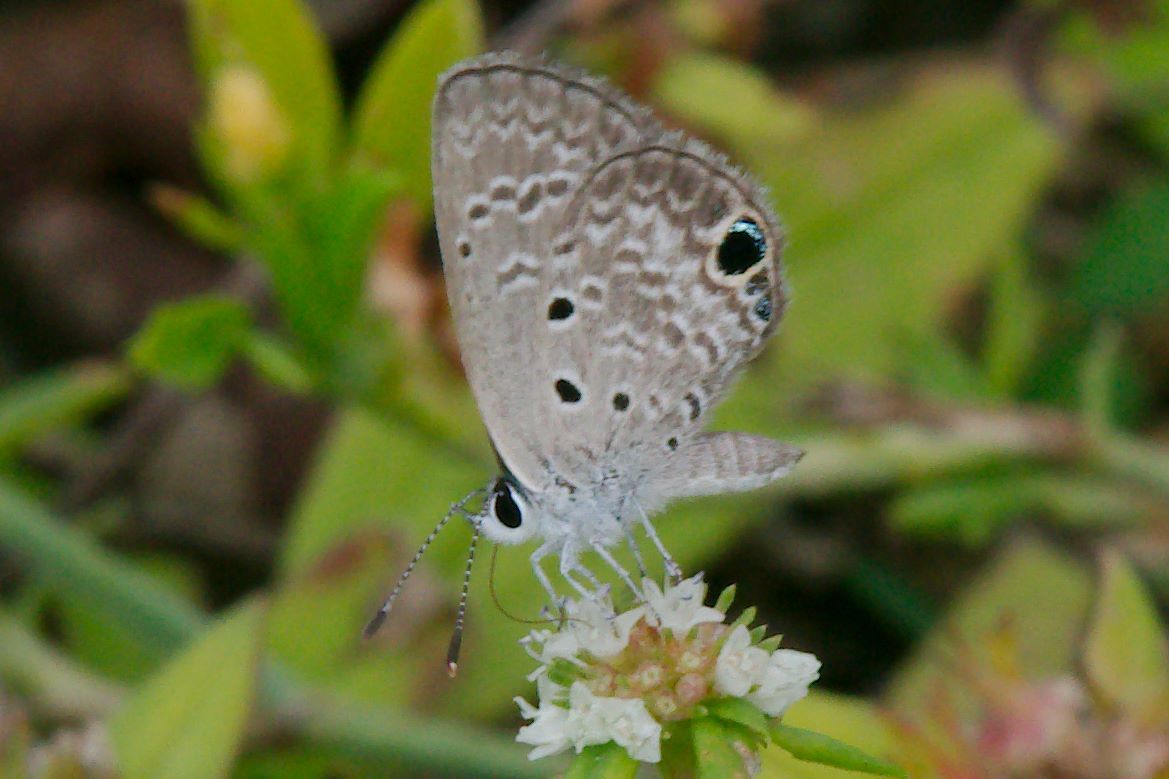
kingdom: Animalia
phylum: Arthropoda
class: Insecta
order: Lepidoptera
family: Lycaenidae
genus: Hemiargus
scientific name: Hemiargus ceraunus
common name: Ceraunus blue
